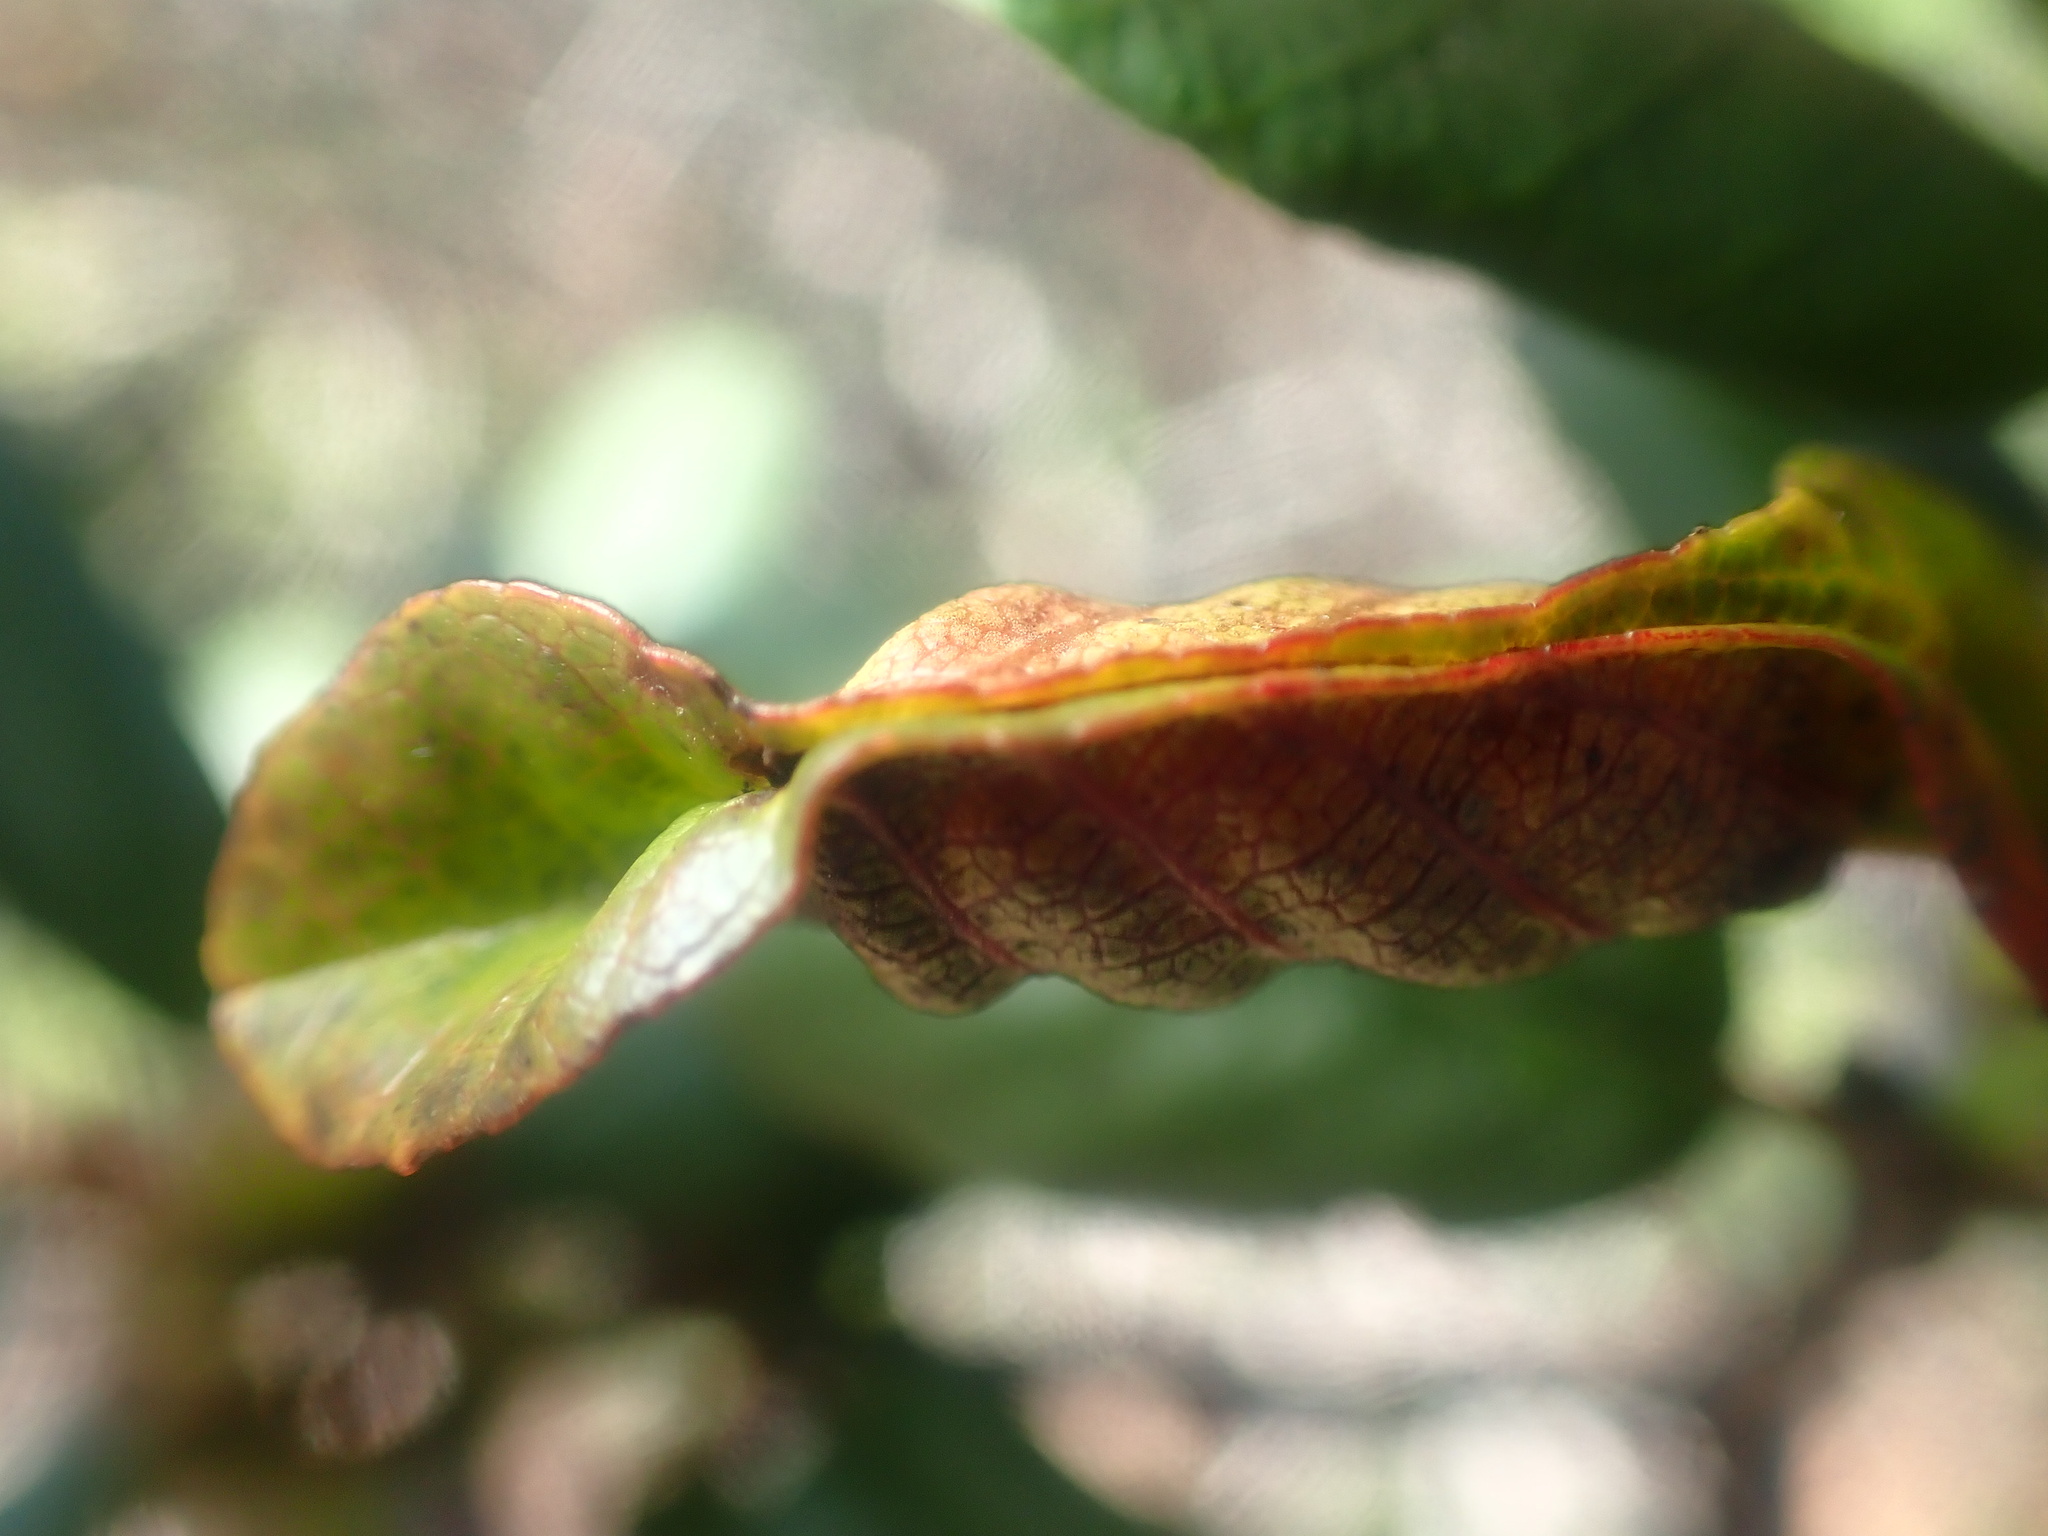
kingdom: Animalia
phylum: Arthropoda
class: Insecta
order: Lepidoptera
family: Cosmopterigidae
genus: Sorhagenia
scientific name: Sorhagenia nimbosus
